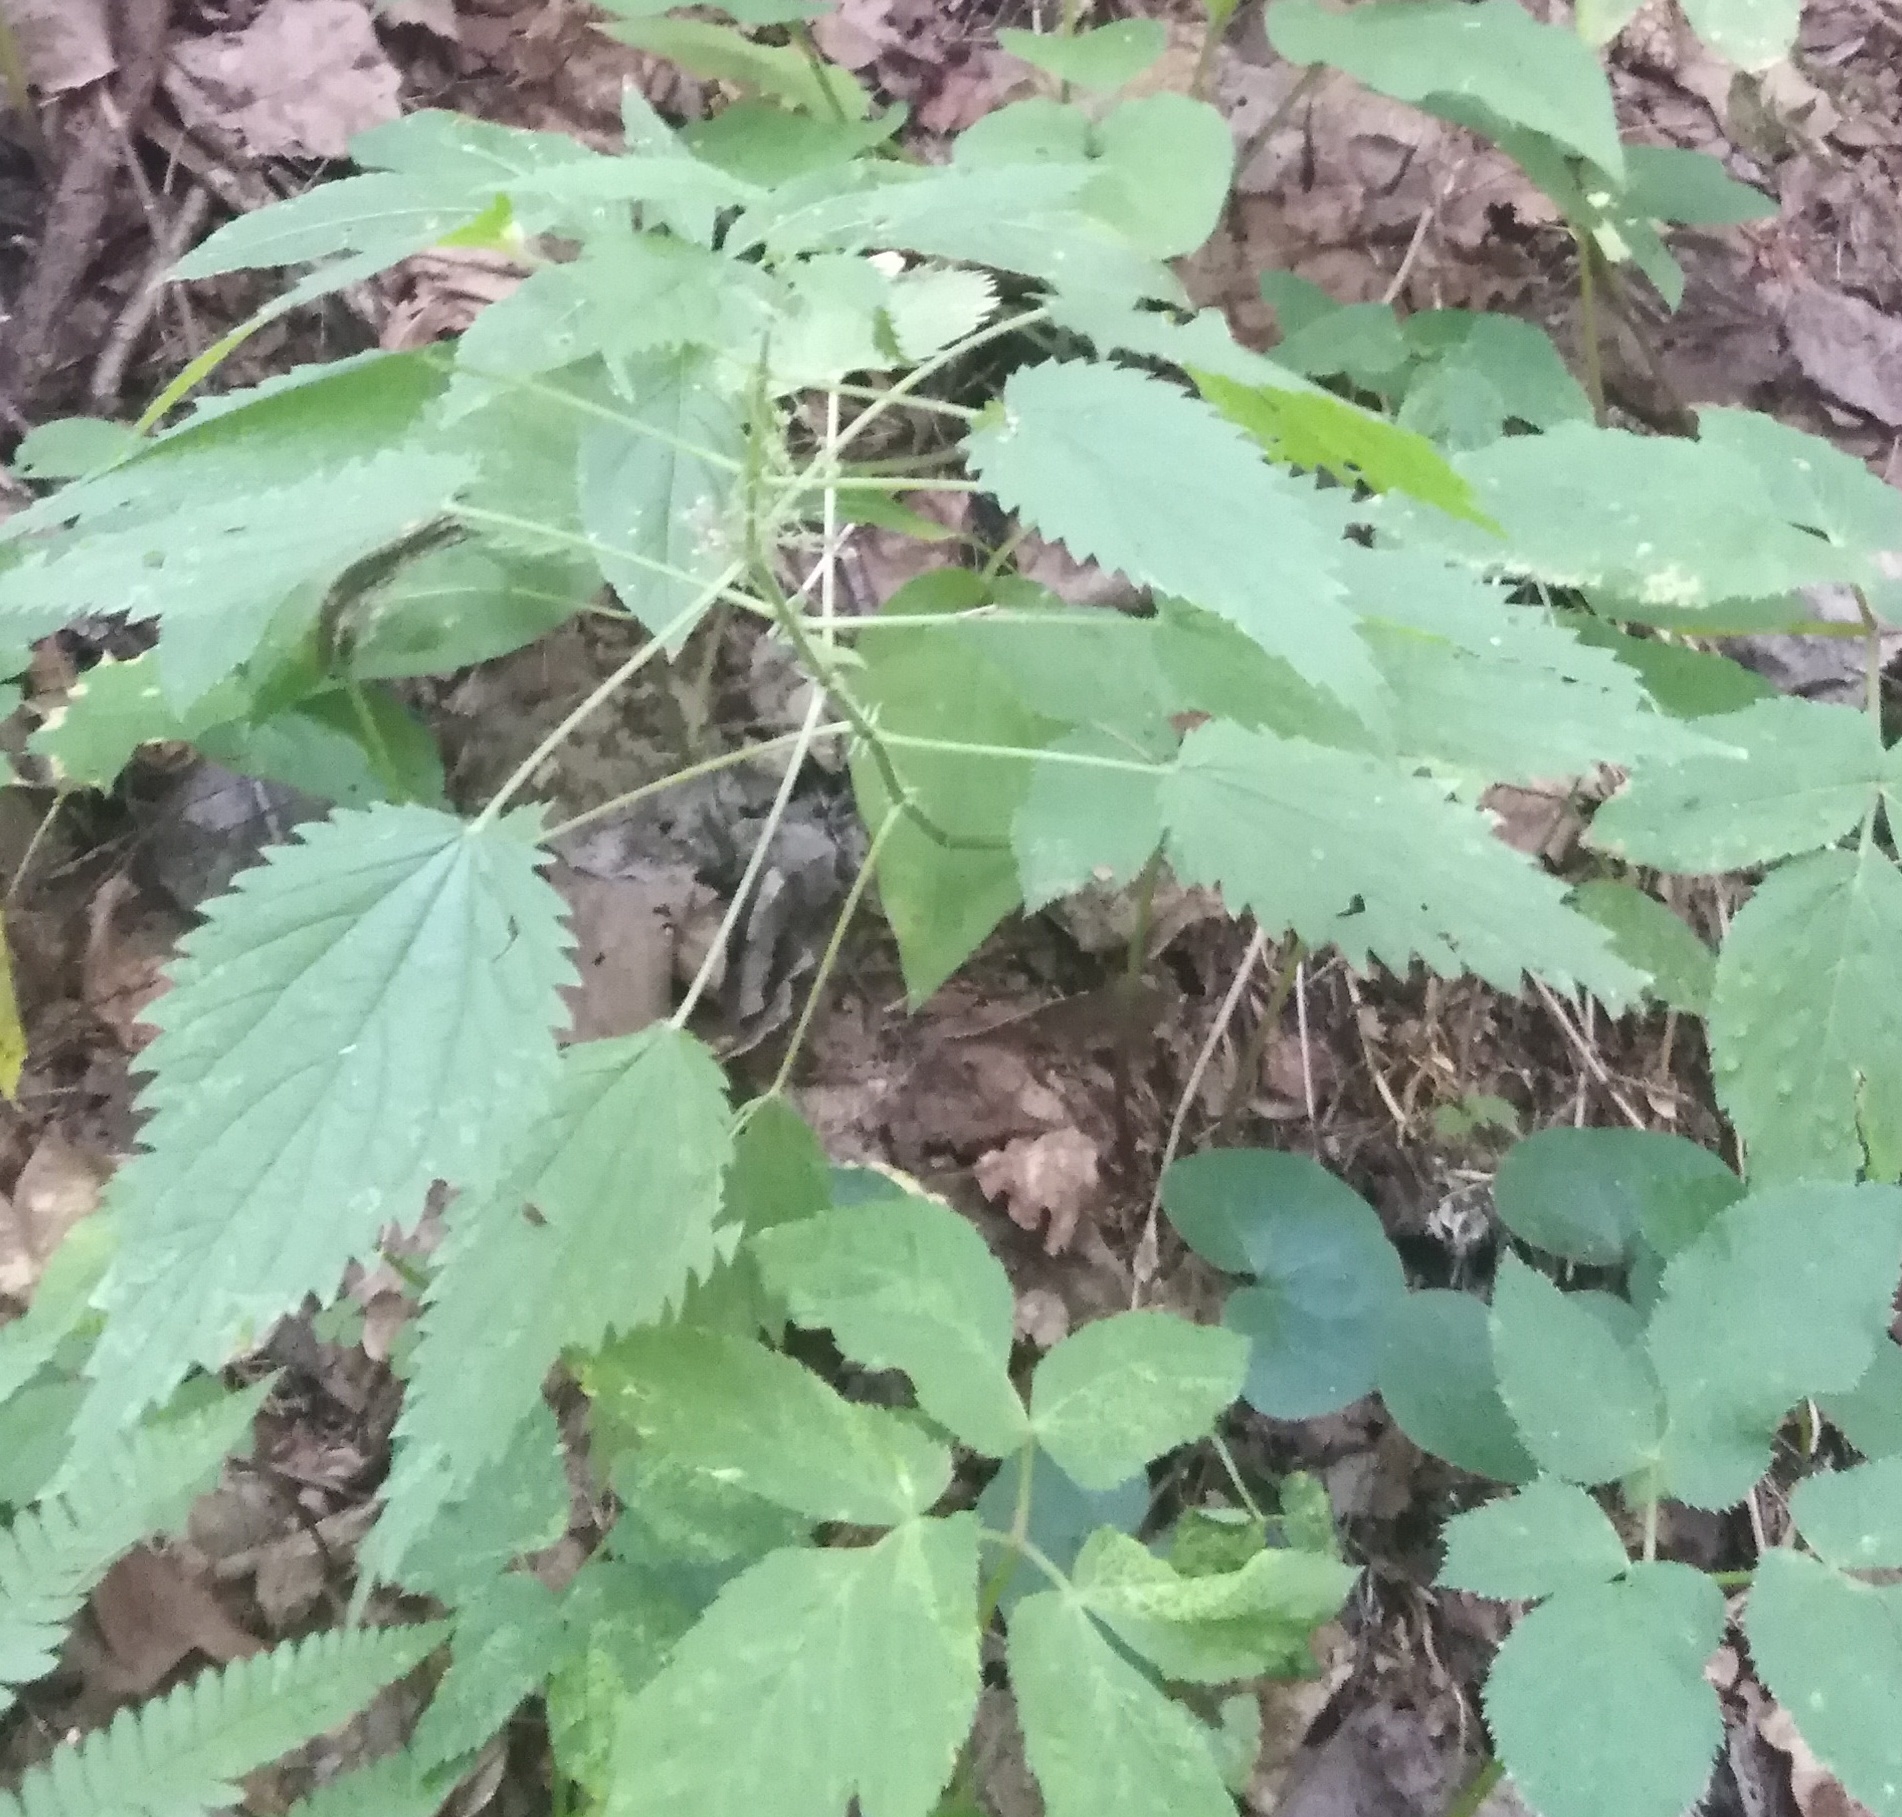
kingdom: Plantae
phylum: Tracheophyta
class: Magnoliopsida
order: Rosales
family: Urticaceae
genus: Urtica
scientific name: Urtica dioica
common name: Common nettle
